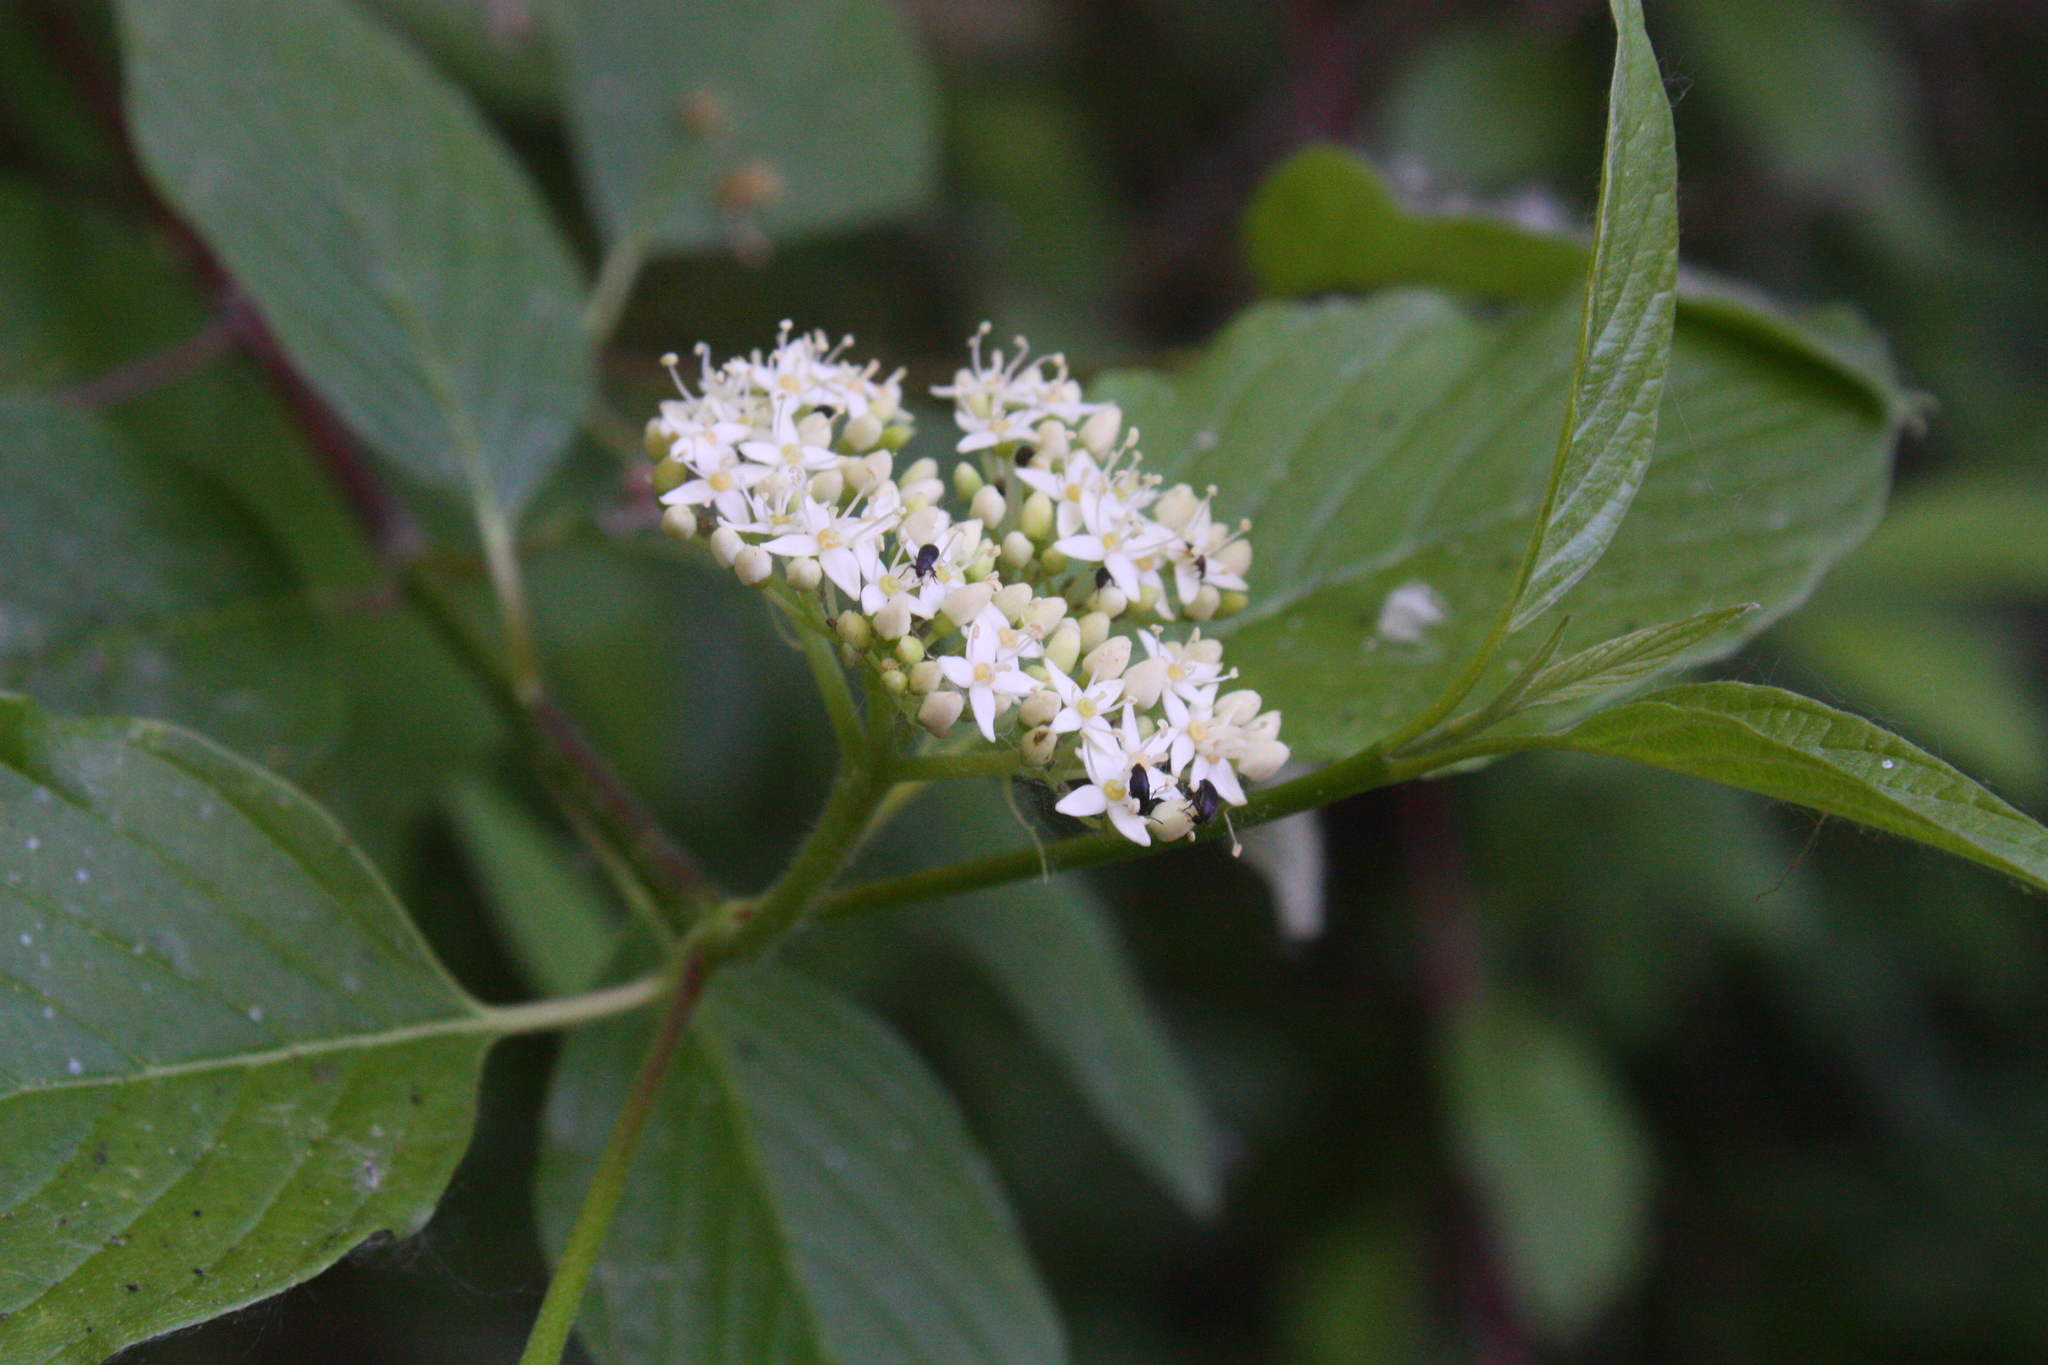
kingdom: Plantae
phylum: Tracheophyta
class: Magnoliopsida
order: Cornales
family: Cornaceae
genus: Cornus
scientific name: Cornus sericea
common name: Red-osier dogwood
